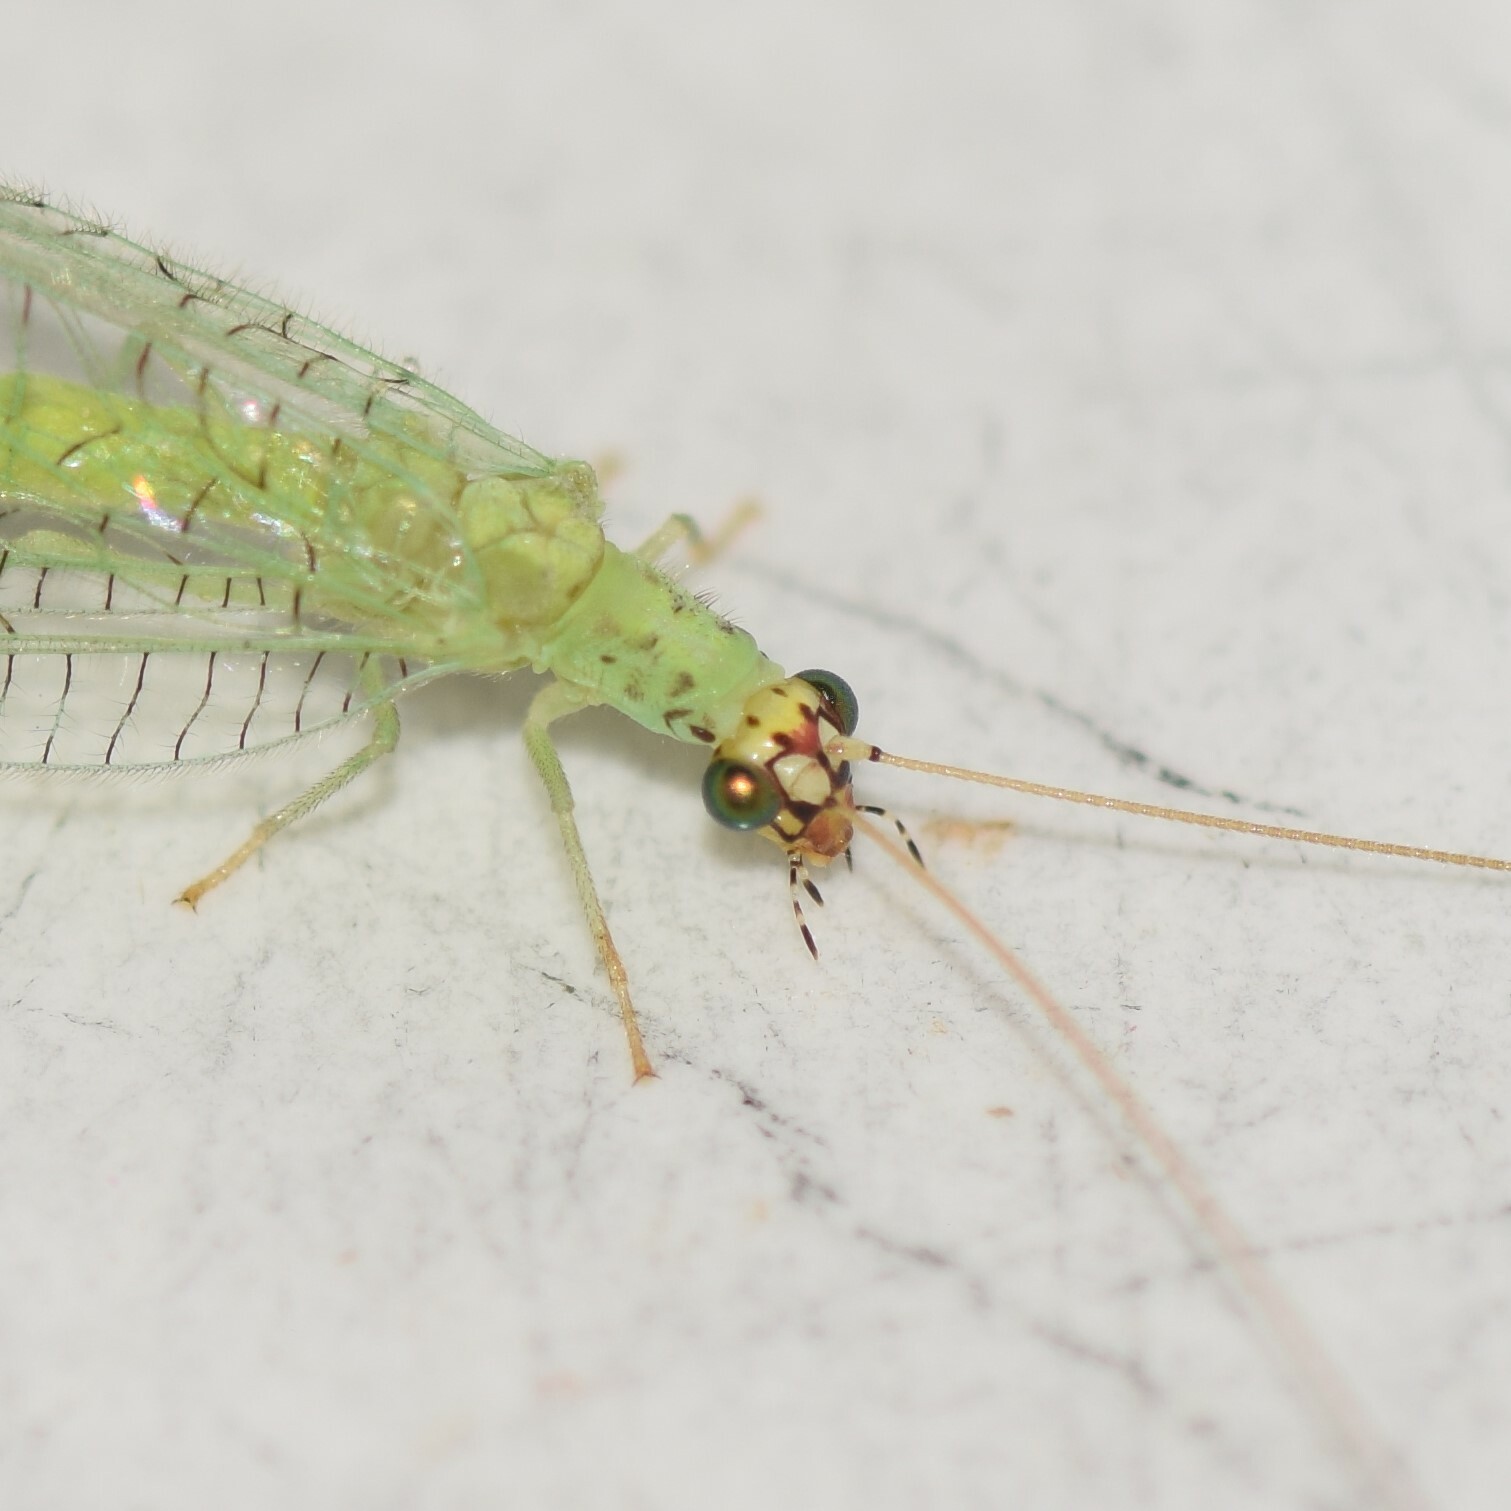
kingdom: Animalia
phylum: Arthropoda
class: Insecta
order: Neuroptera
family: Chrysopidae
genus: Chrysopa
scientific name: Chrysopa oculata
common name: Golden-eyed lacewing
